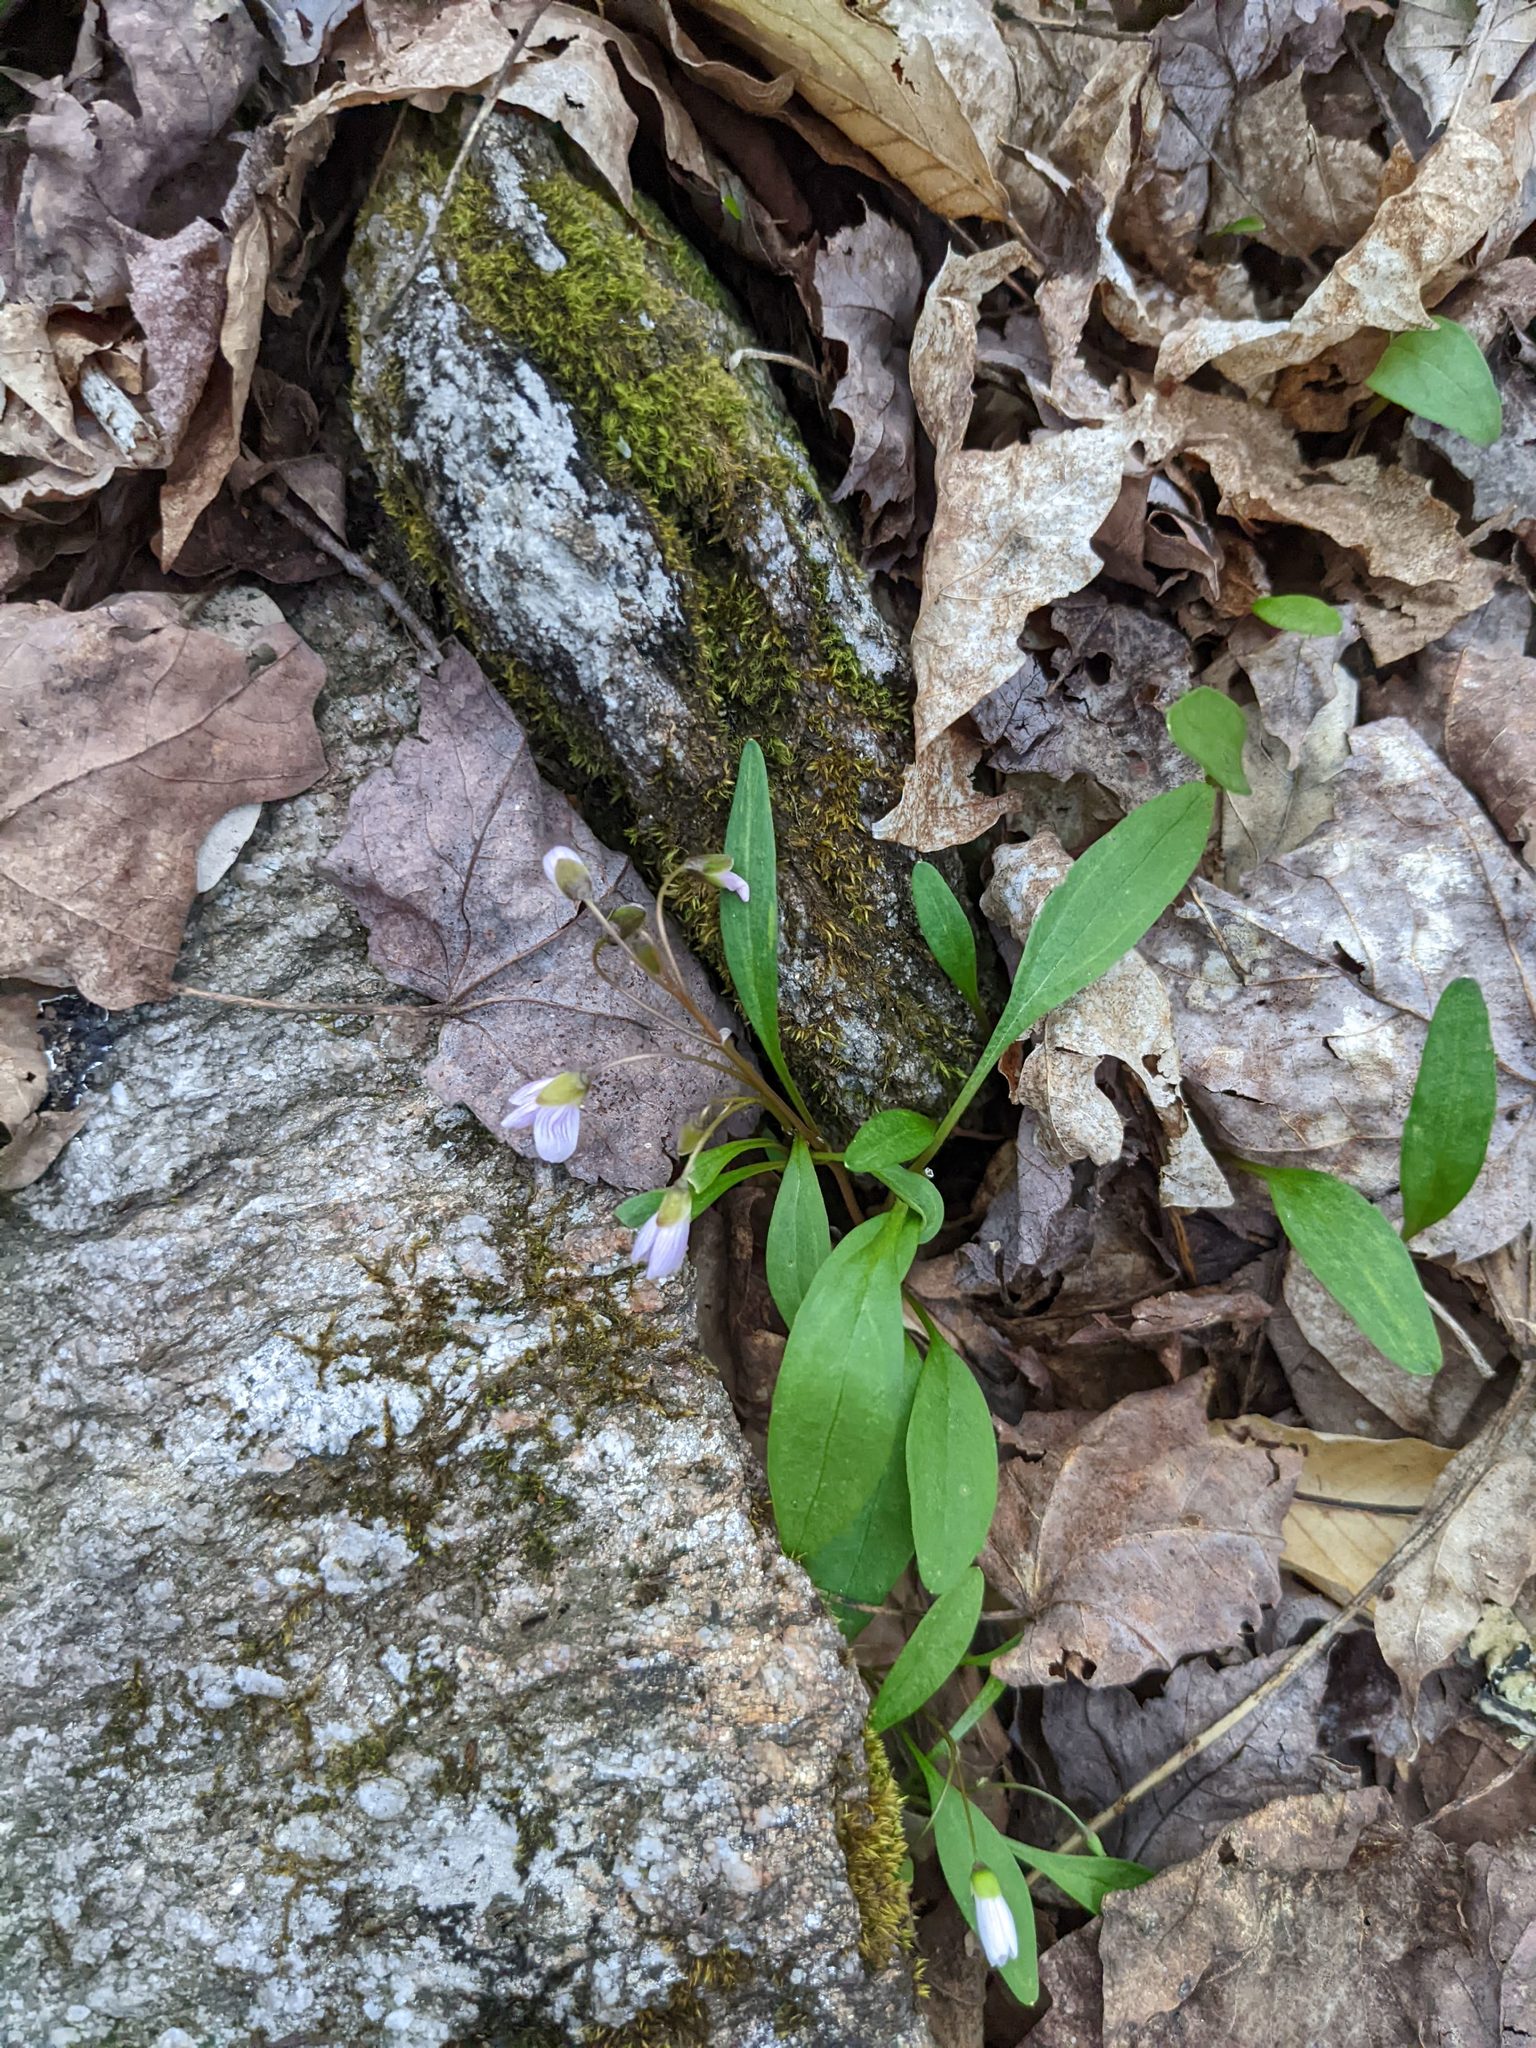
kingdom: Plantae
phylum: Tracheophyta
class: Magnoliopsida
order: Caryophyllales
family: Montiaceae
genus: Claytonia
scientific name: Claytonia caroliniana
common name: Carolina spring beauty
